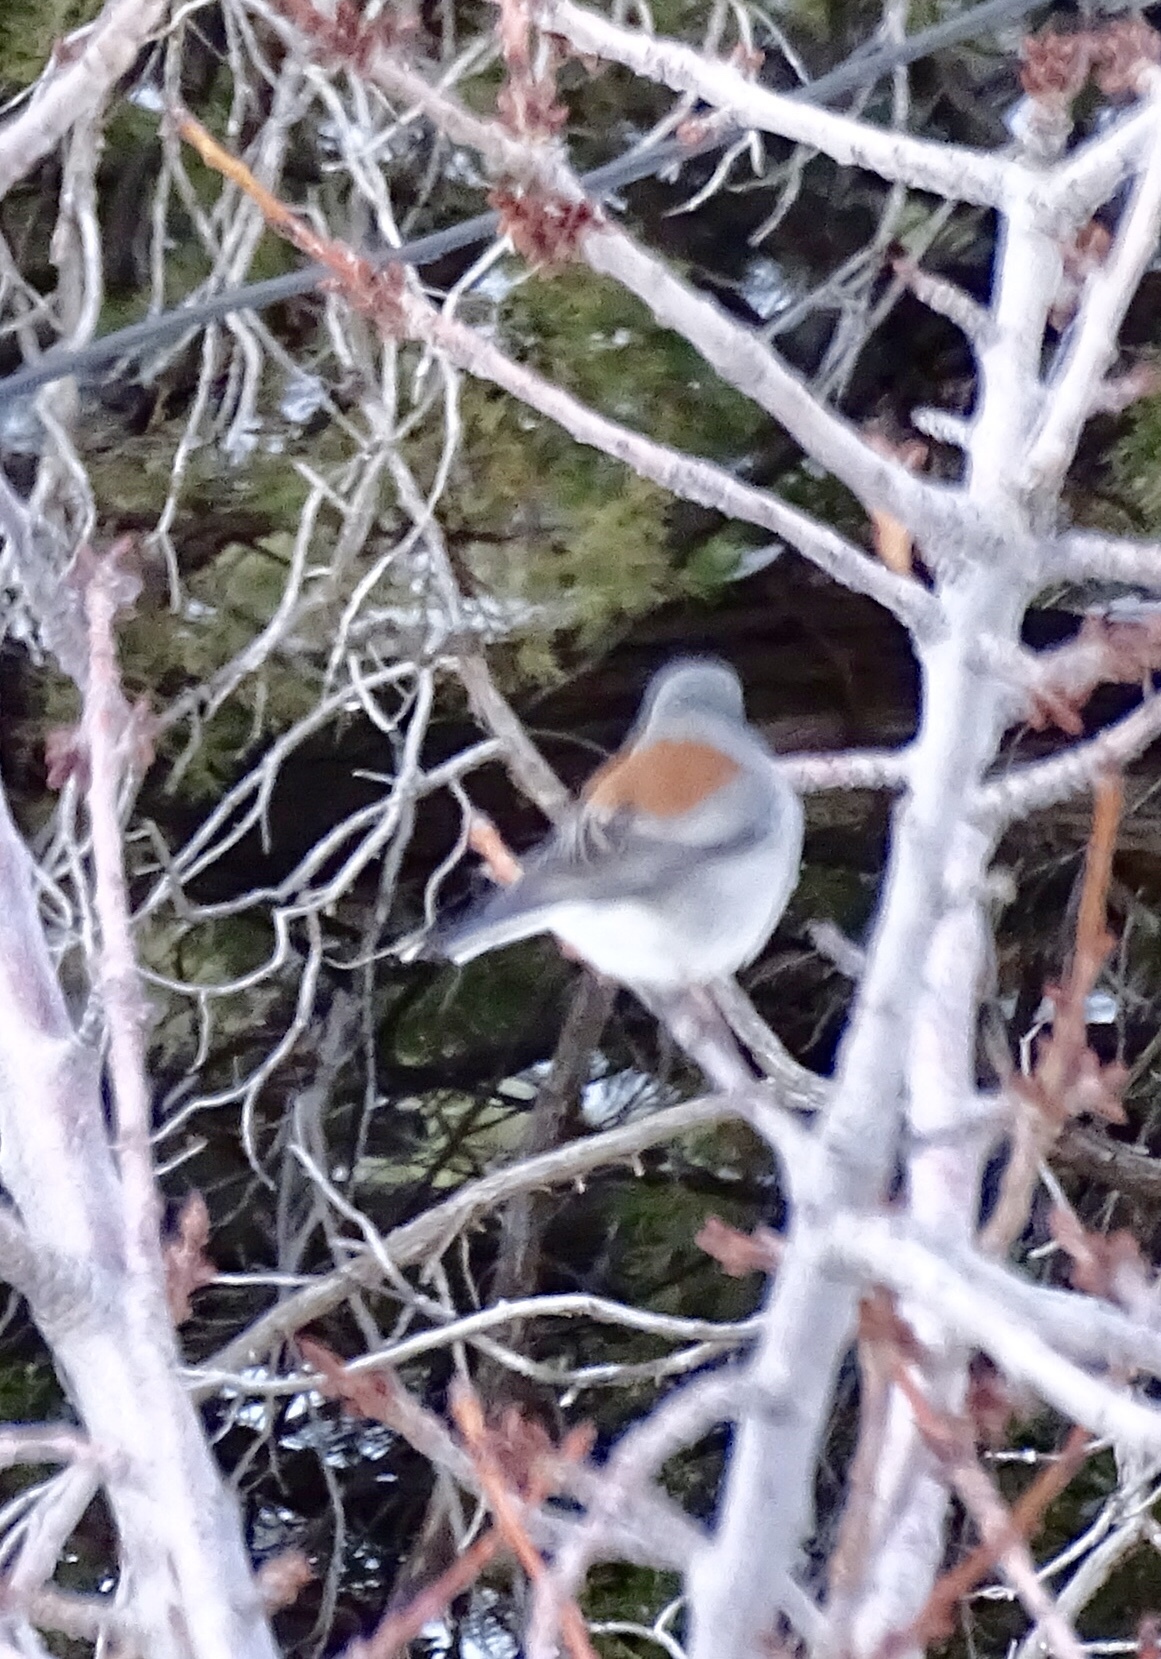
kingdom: Animalia
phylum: Chordata
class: Aves
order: Passeriformes
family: Passerellidae
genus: Junco
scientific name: Junco hyemalis
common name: Dark-eyed junco
